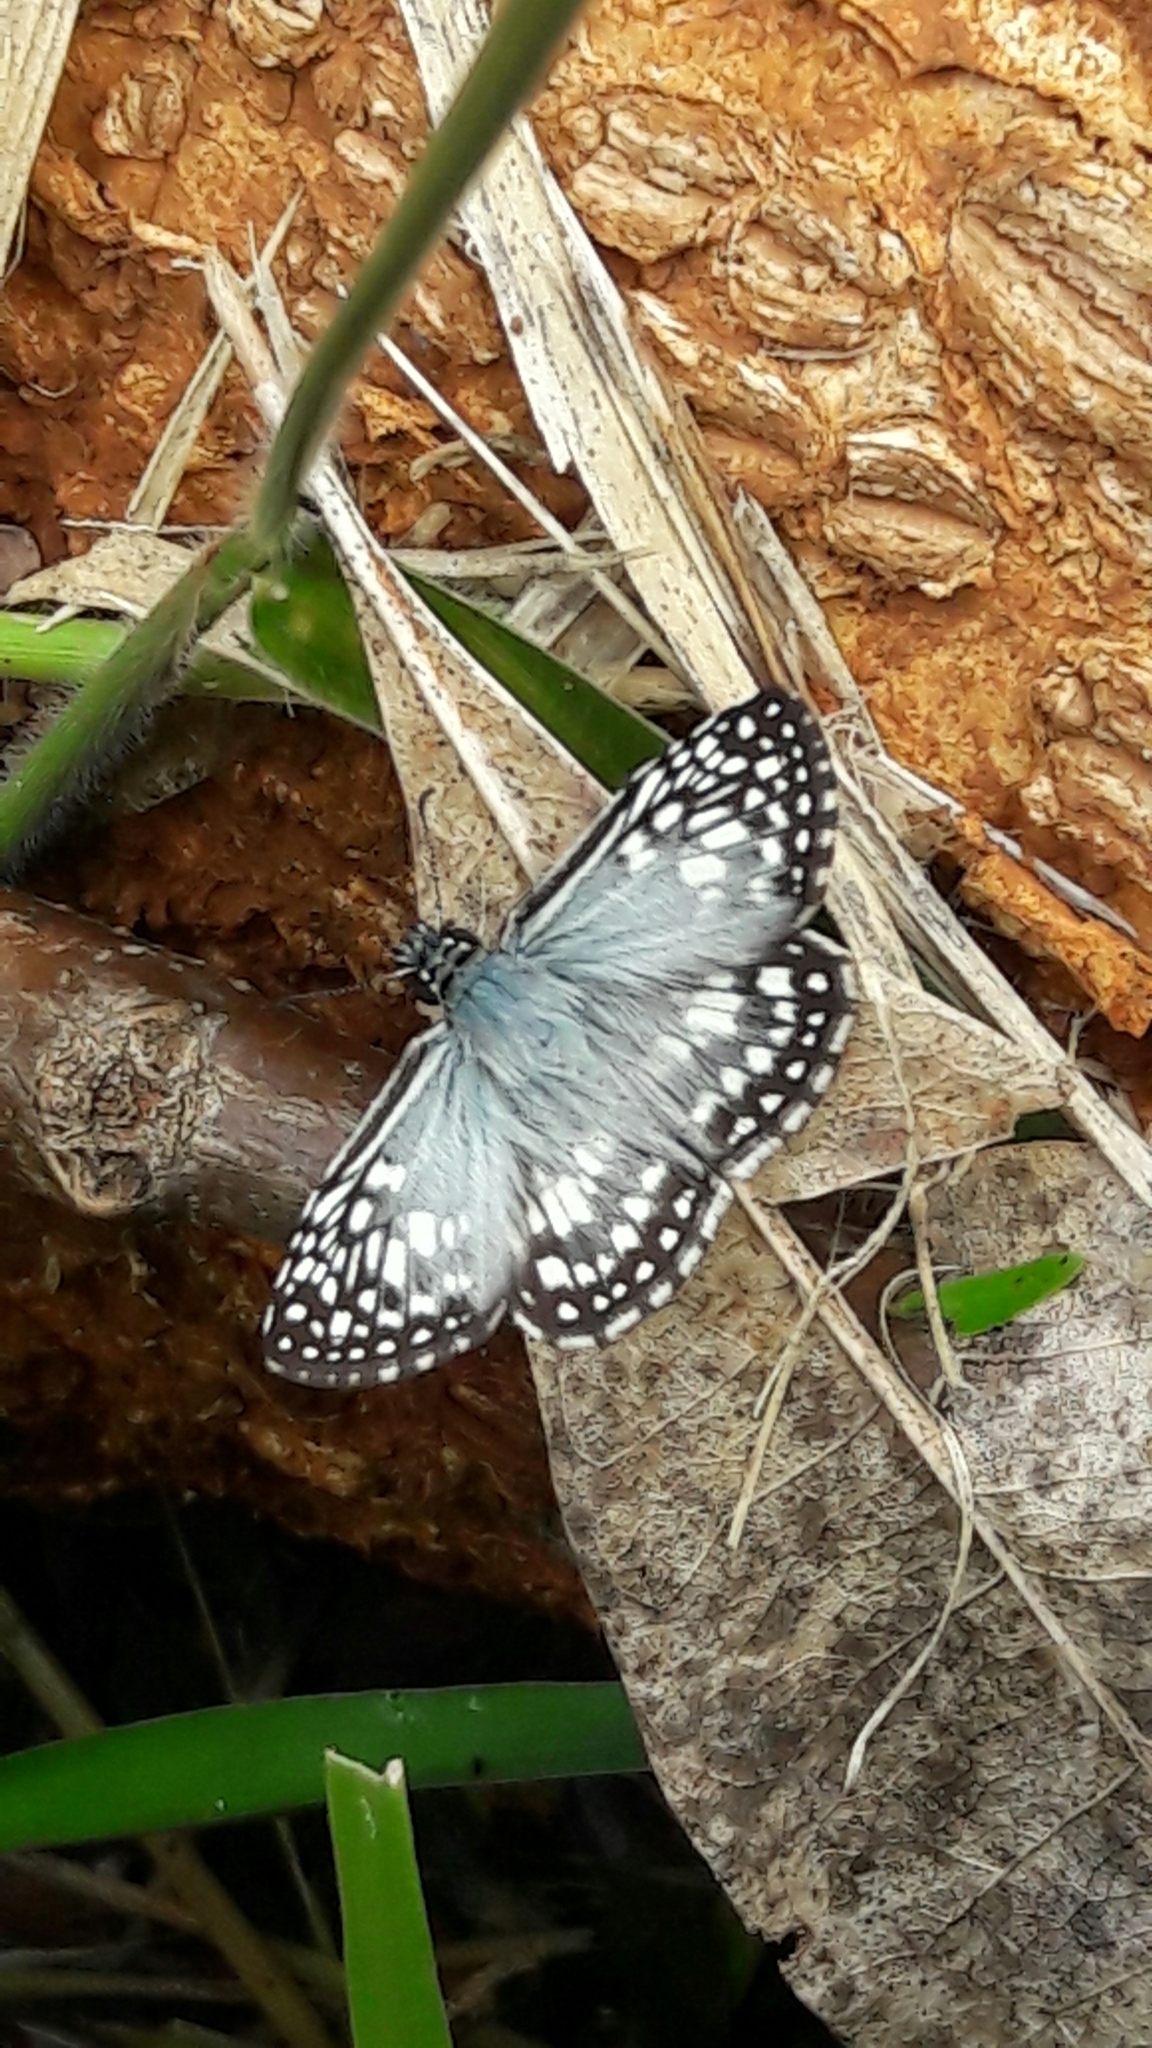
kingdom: Animalia
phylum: Arthropoda
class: Insecta
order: Lepidoptera
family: Hesperiidae
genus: Pyrgus
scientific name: Pyrgus oileus
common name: Tropical checkered-skipper
